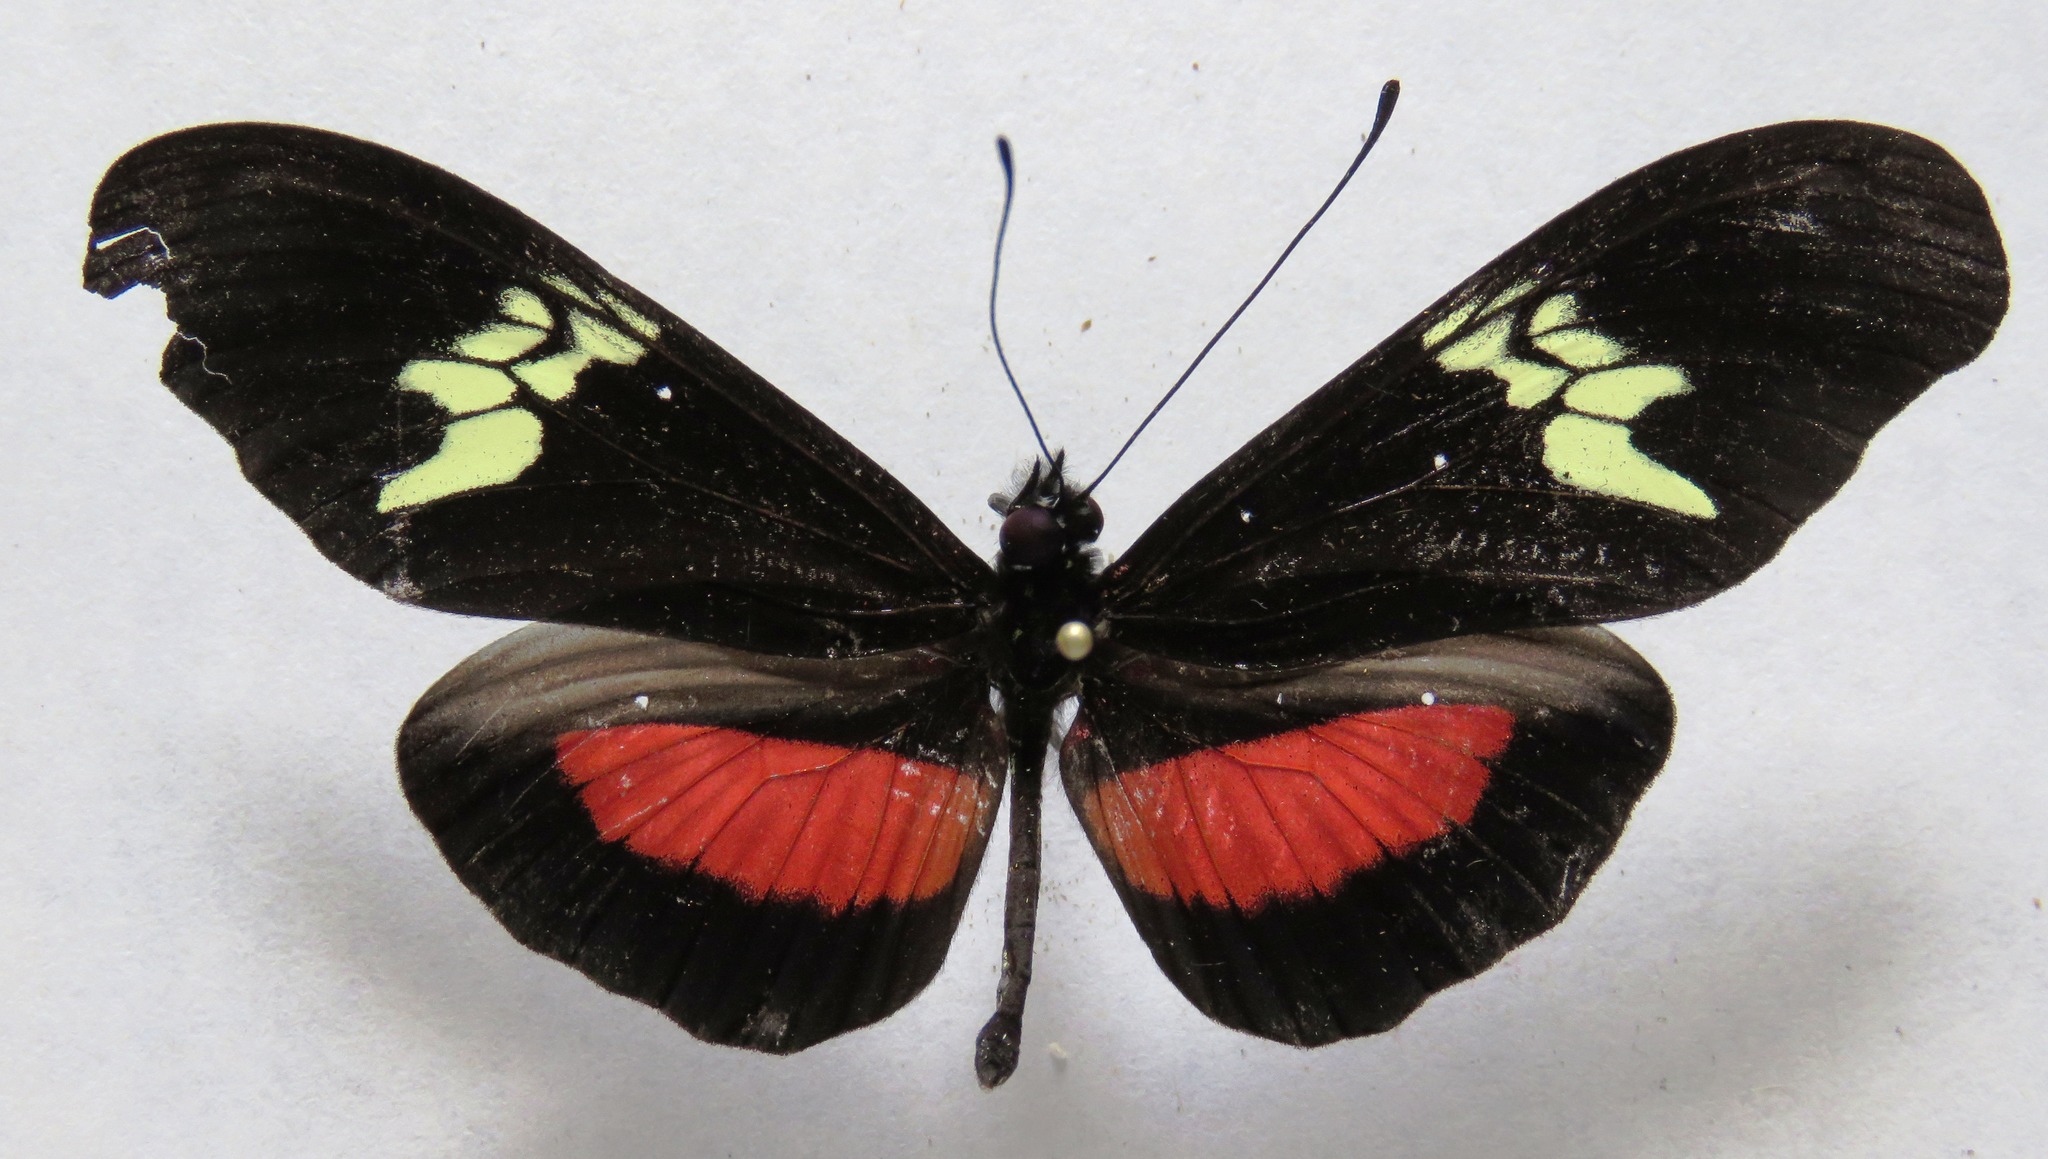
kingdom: Animalia
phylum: Arthropoda
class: Insecta
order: Lepidoptera
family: Nymphalidae
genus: Heliconius
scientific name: Heliconius hortense
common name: Mexican longwing
